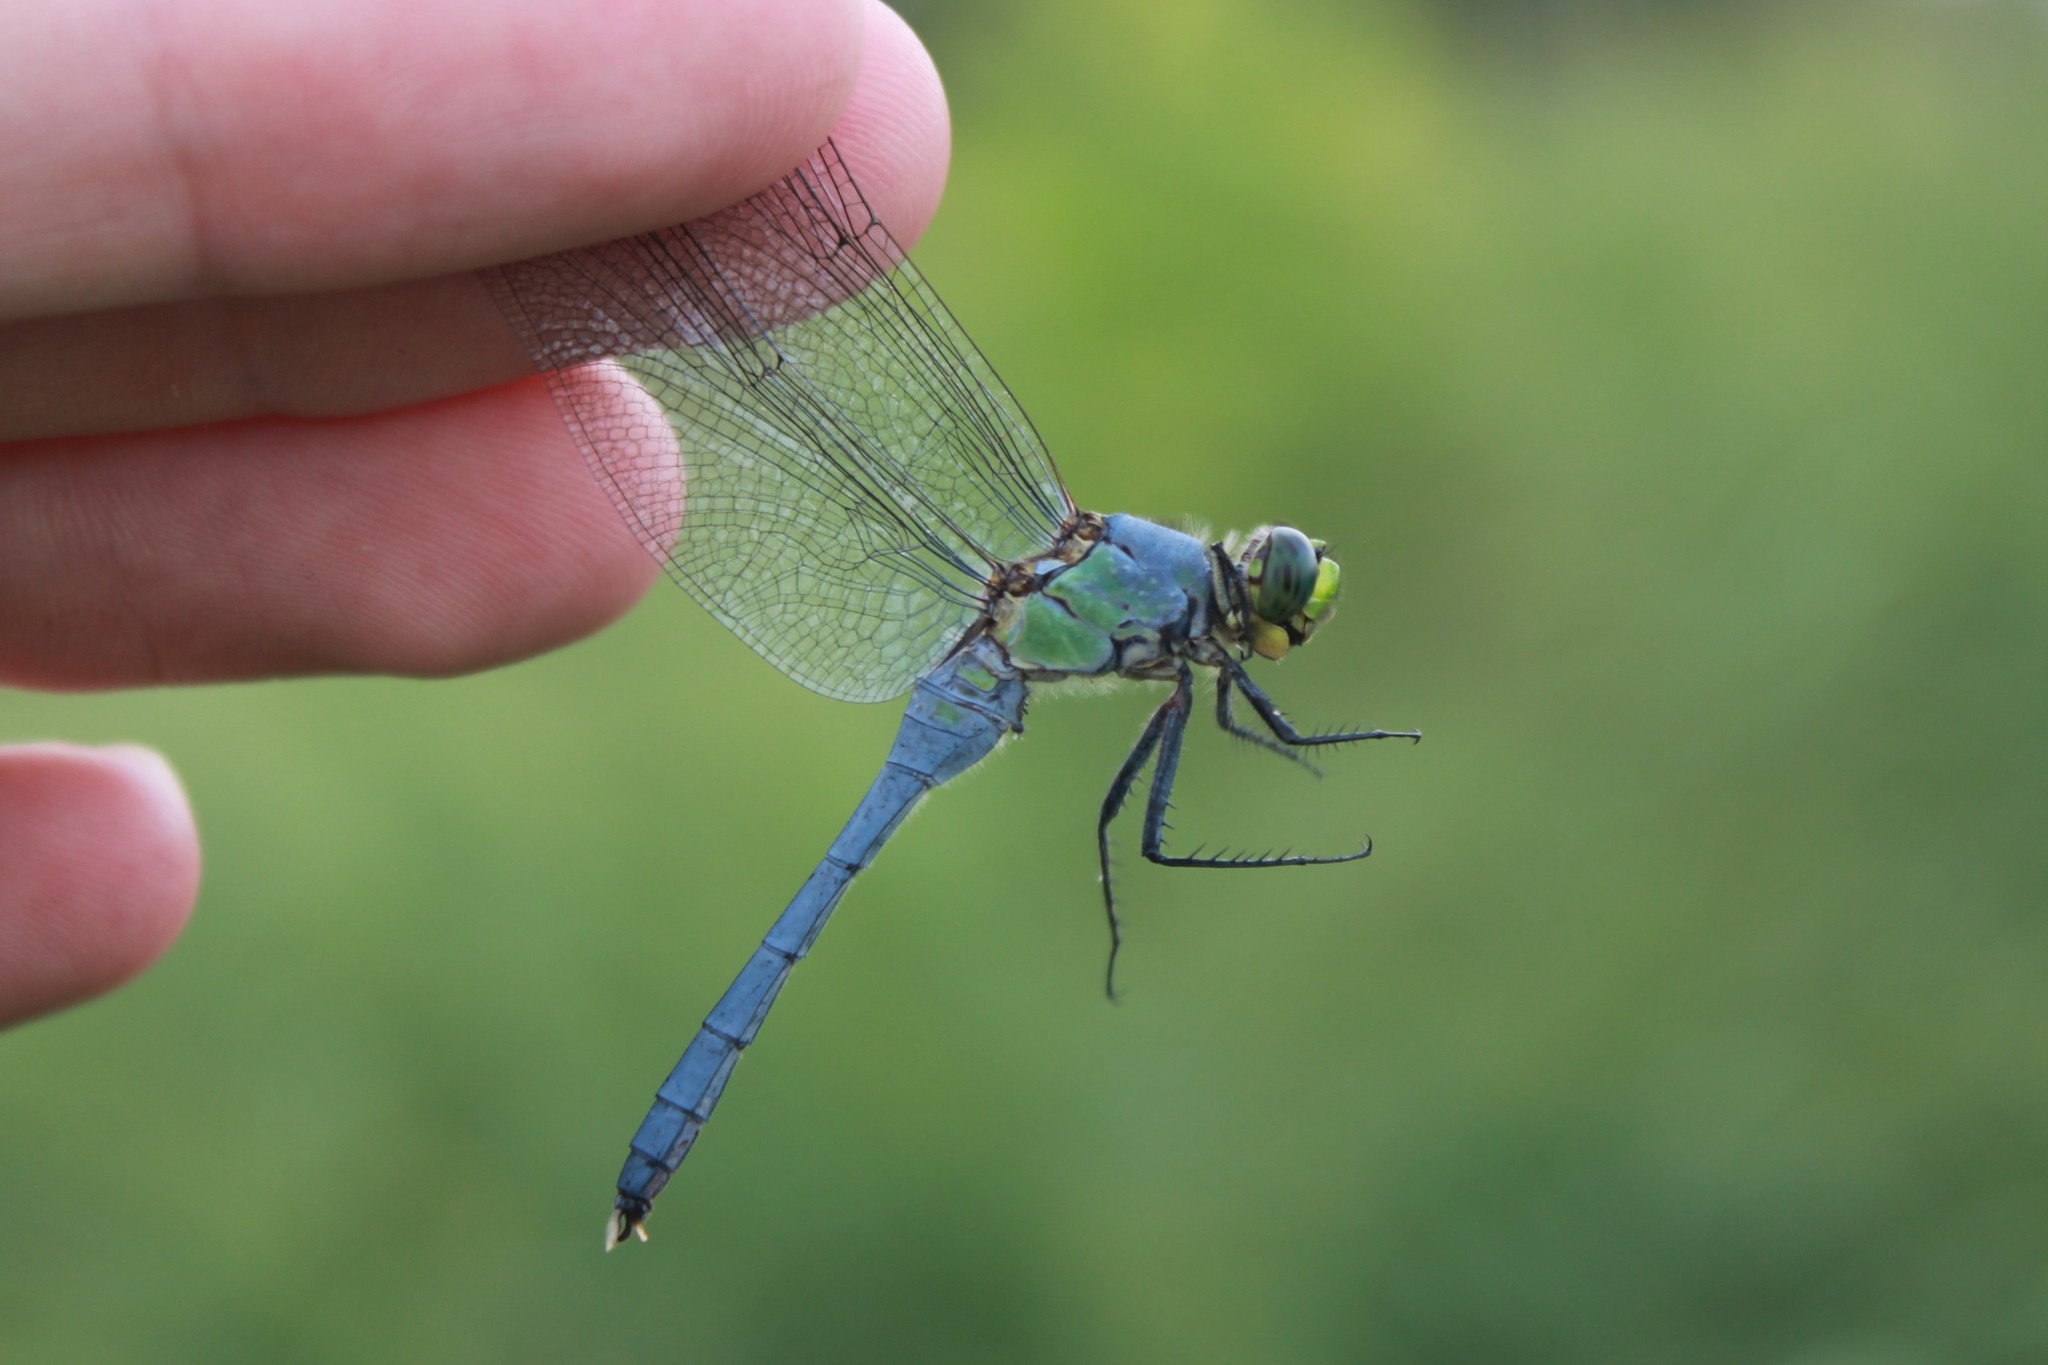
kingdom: Animalia
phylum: Arthropoda
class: Insecta
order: Odonata
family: Libellulidae
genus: Erythemis
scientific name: Erythemis simplicicollis
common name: Eastern pondhawk
